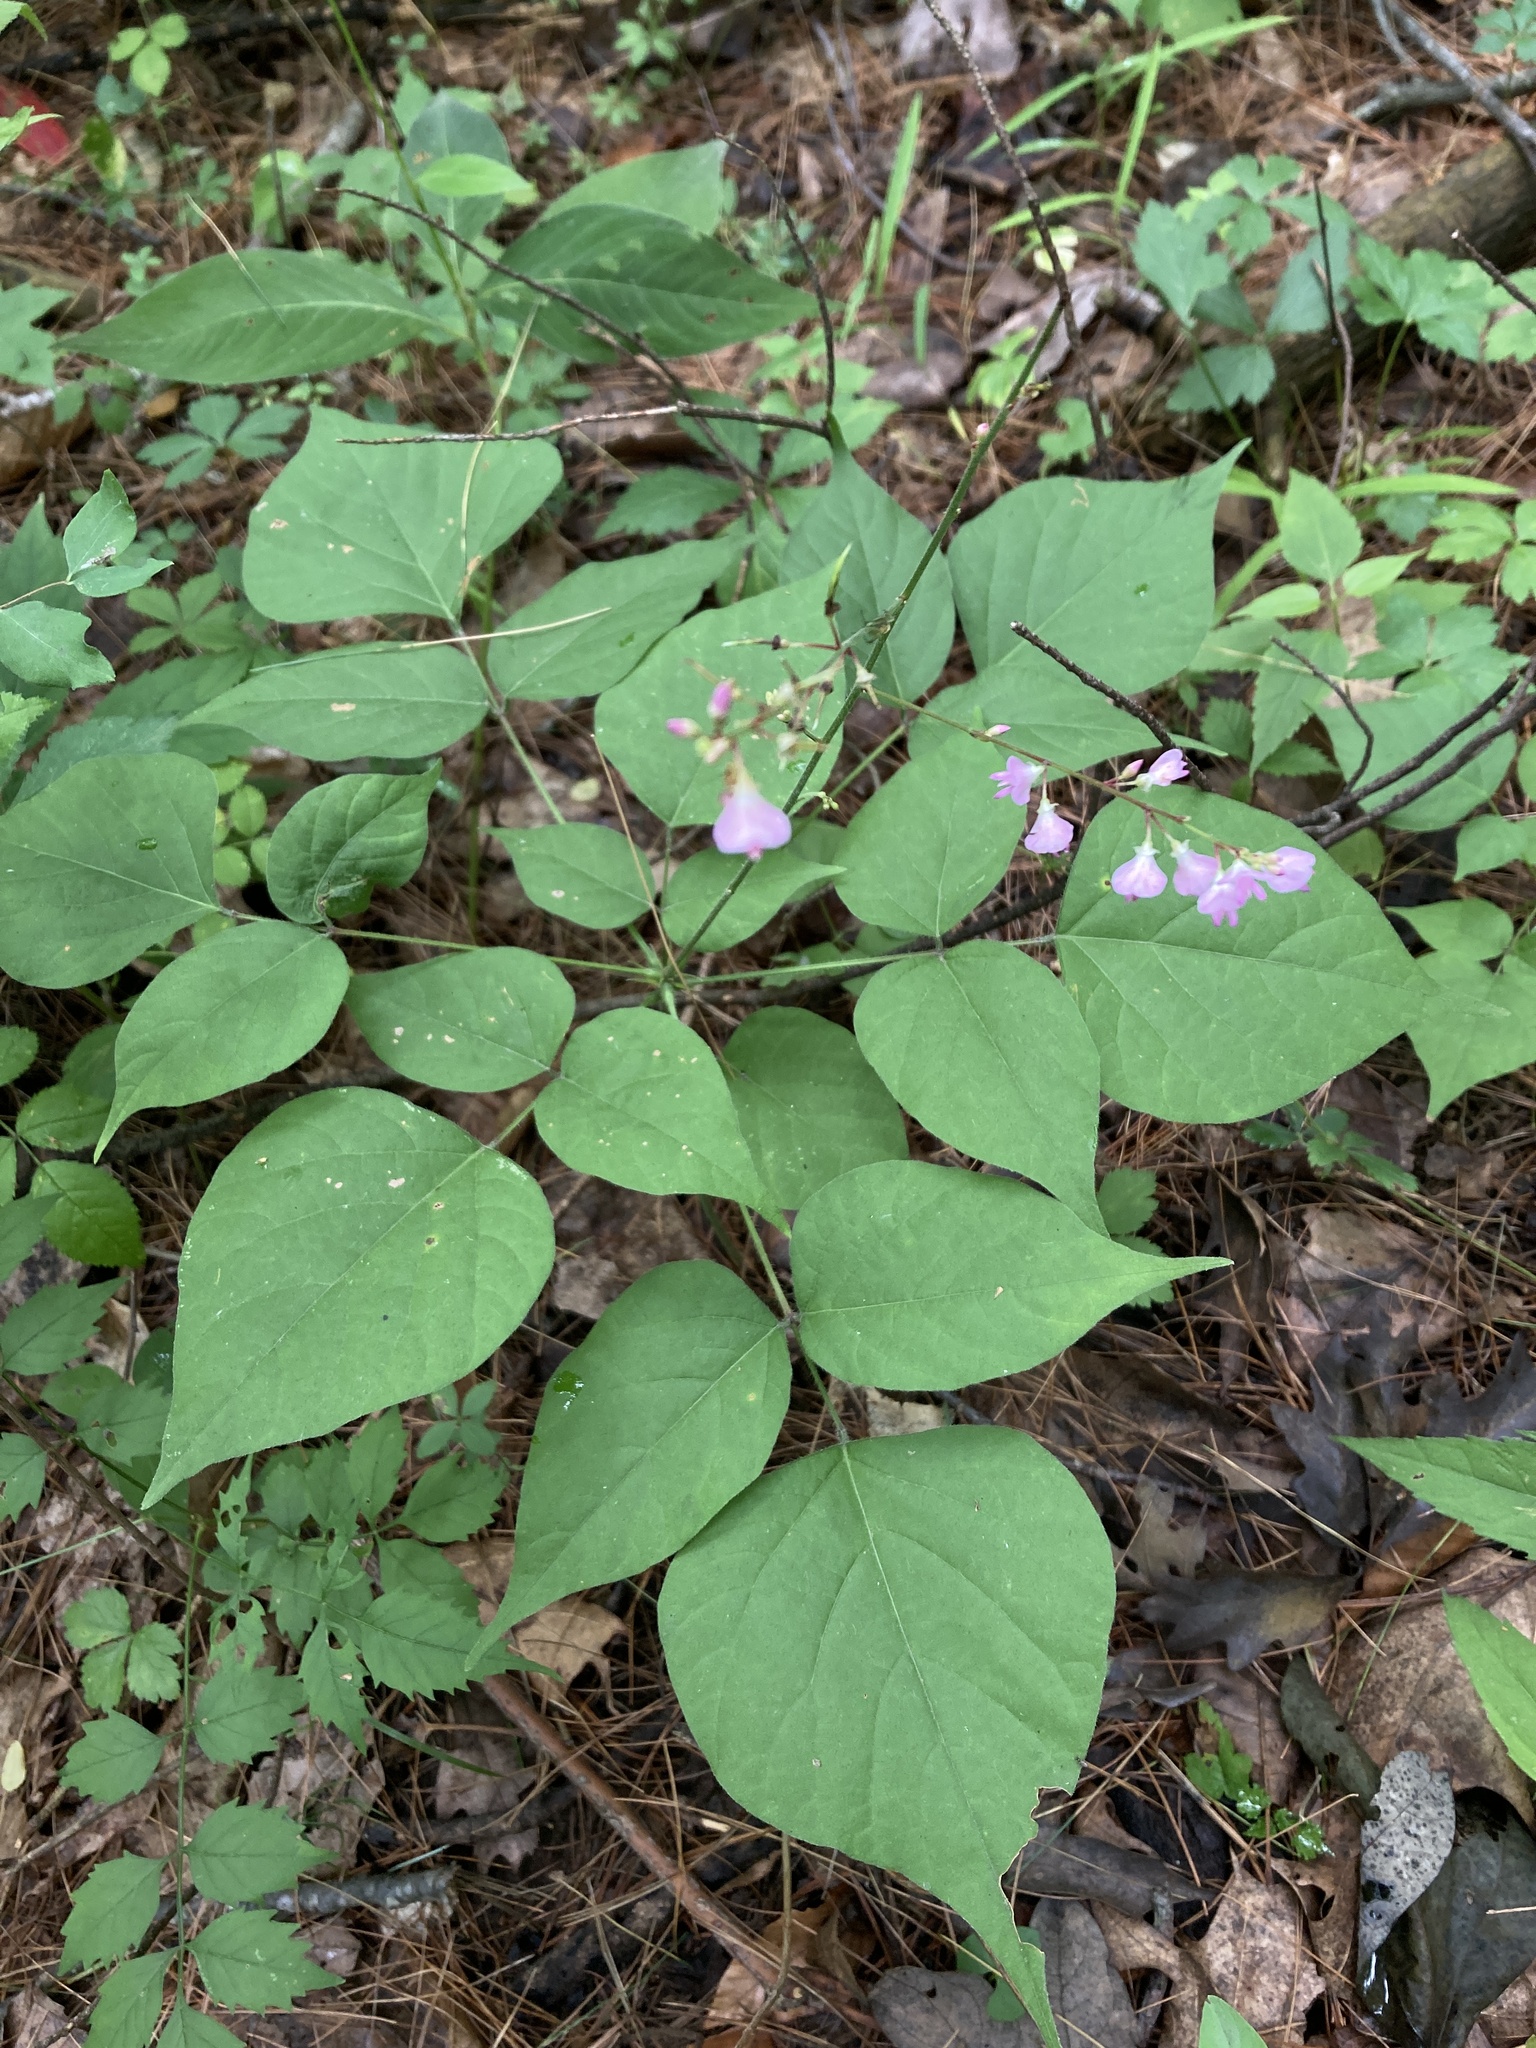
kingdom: Plantae
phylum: Tracheophyta
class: Magnoliopsida
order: Fabales
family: Fabaceae
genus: Hylodesmum
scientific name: Hylodesmum glutinosum
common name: Clustered-leaved tick-trefoil
